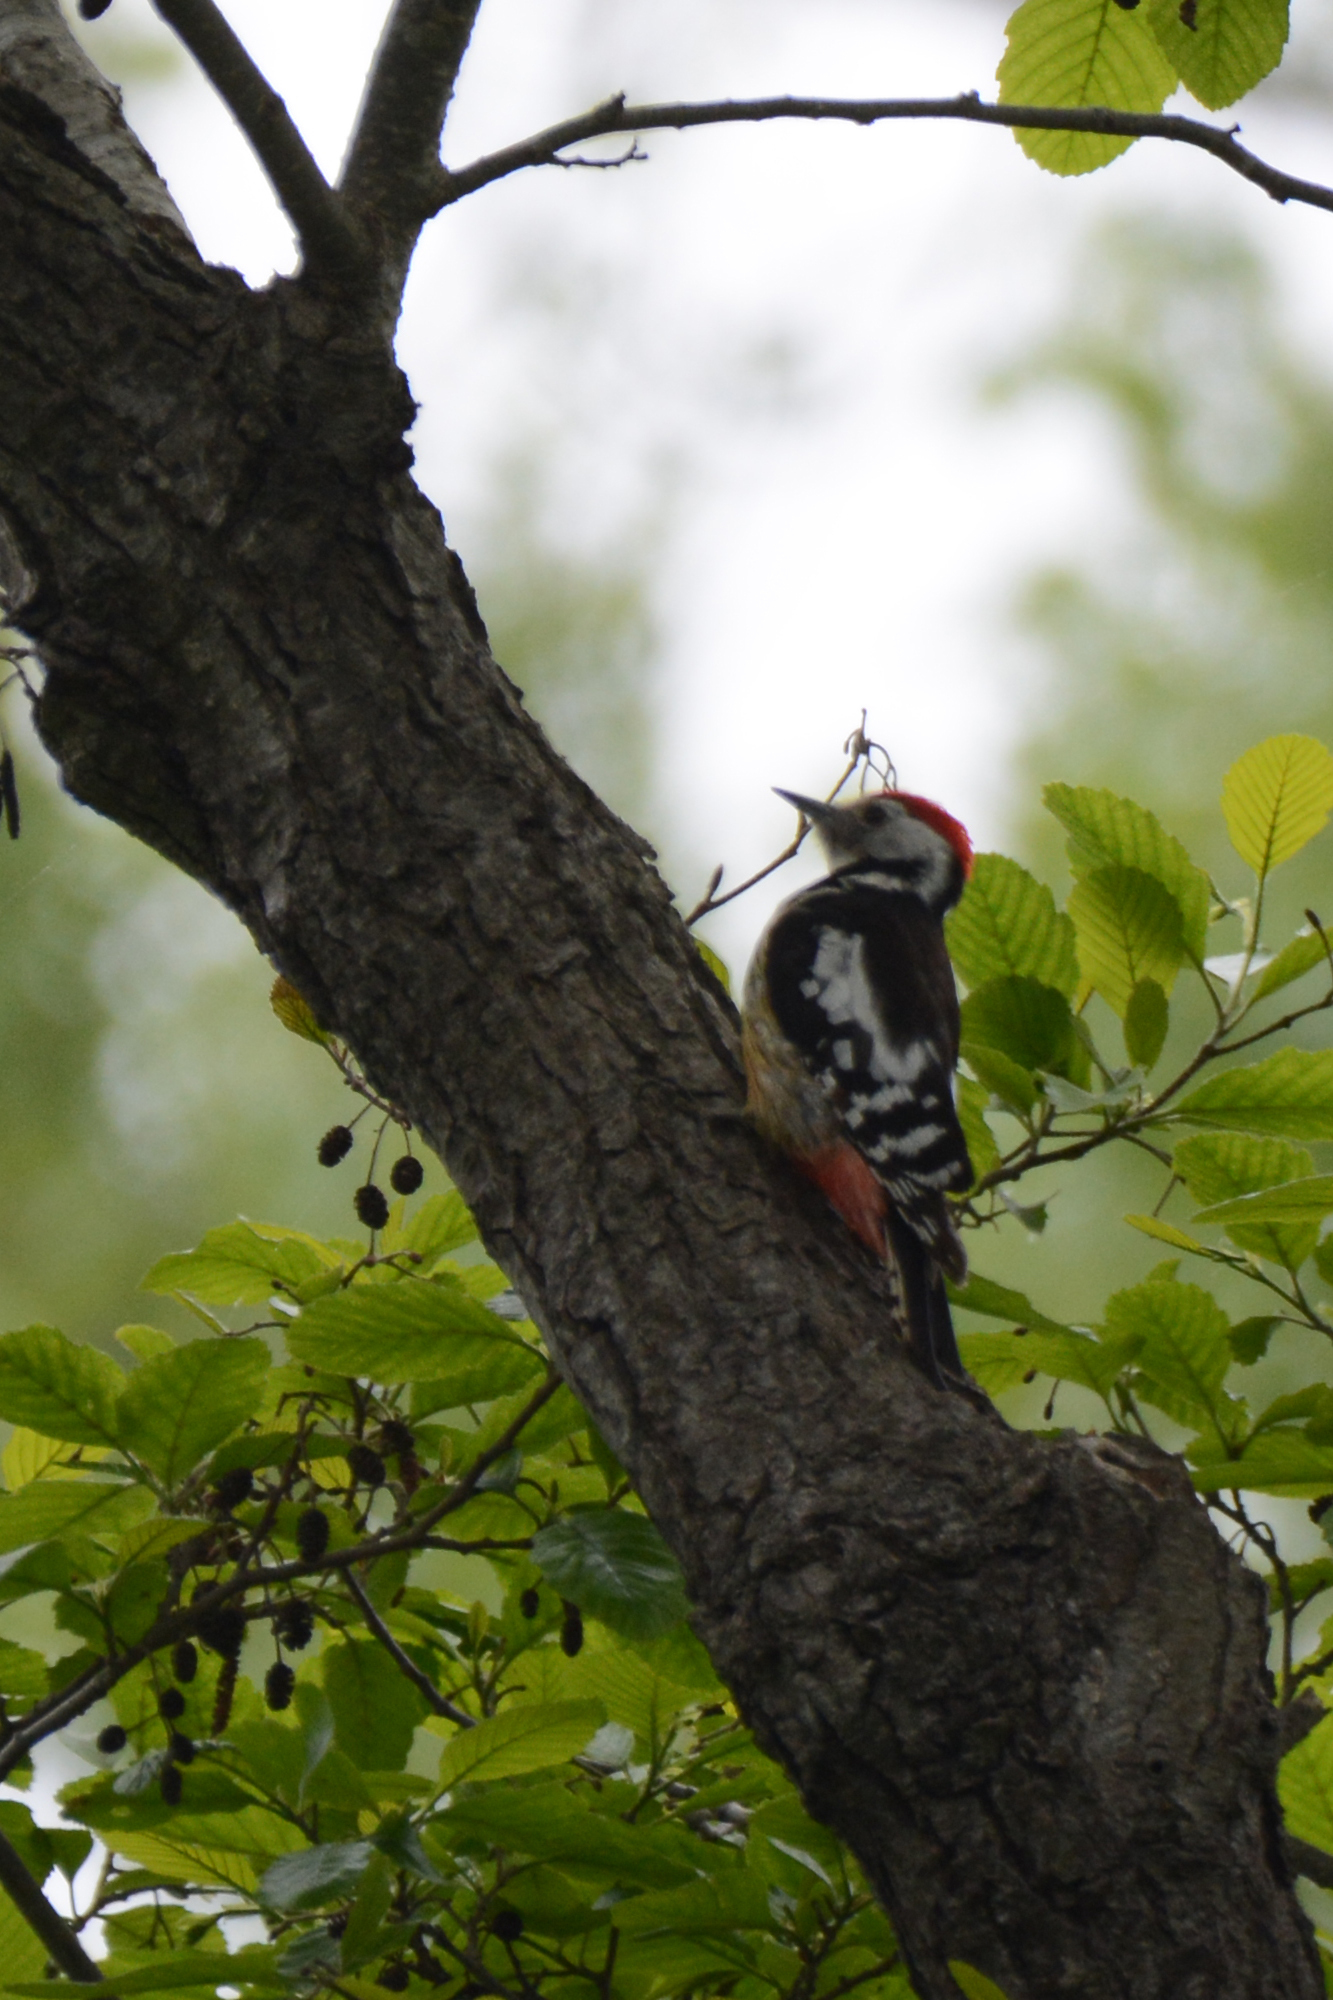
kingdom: Animalia
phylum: Chordata
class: Aves
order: Piciformes
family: Picidae
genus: Dendrocoptes
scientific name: Dendrocoptes medius
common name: Middle spotted woodpecker
